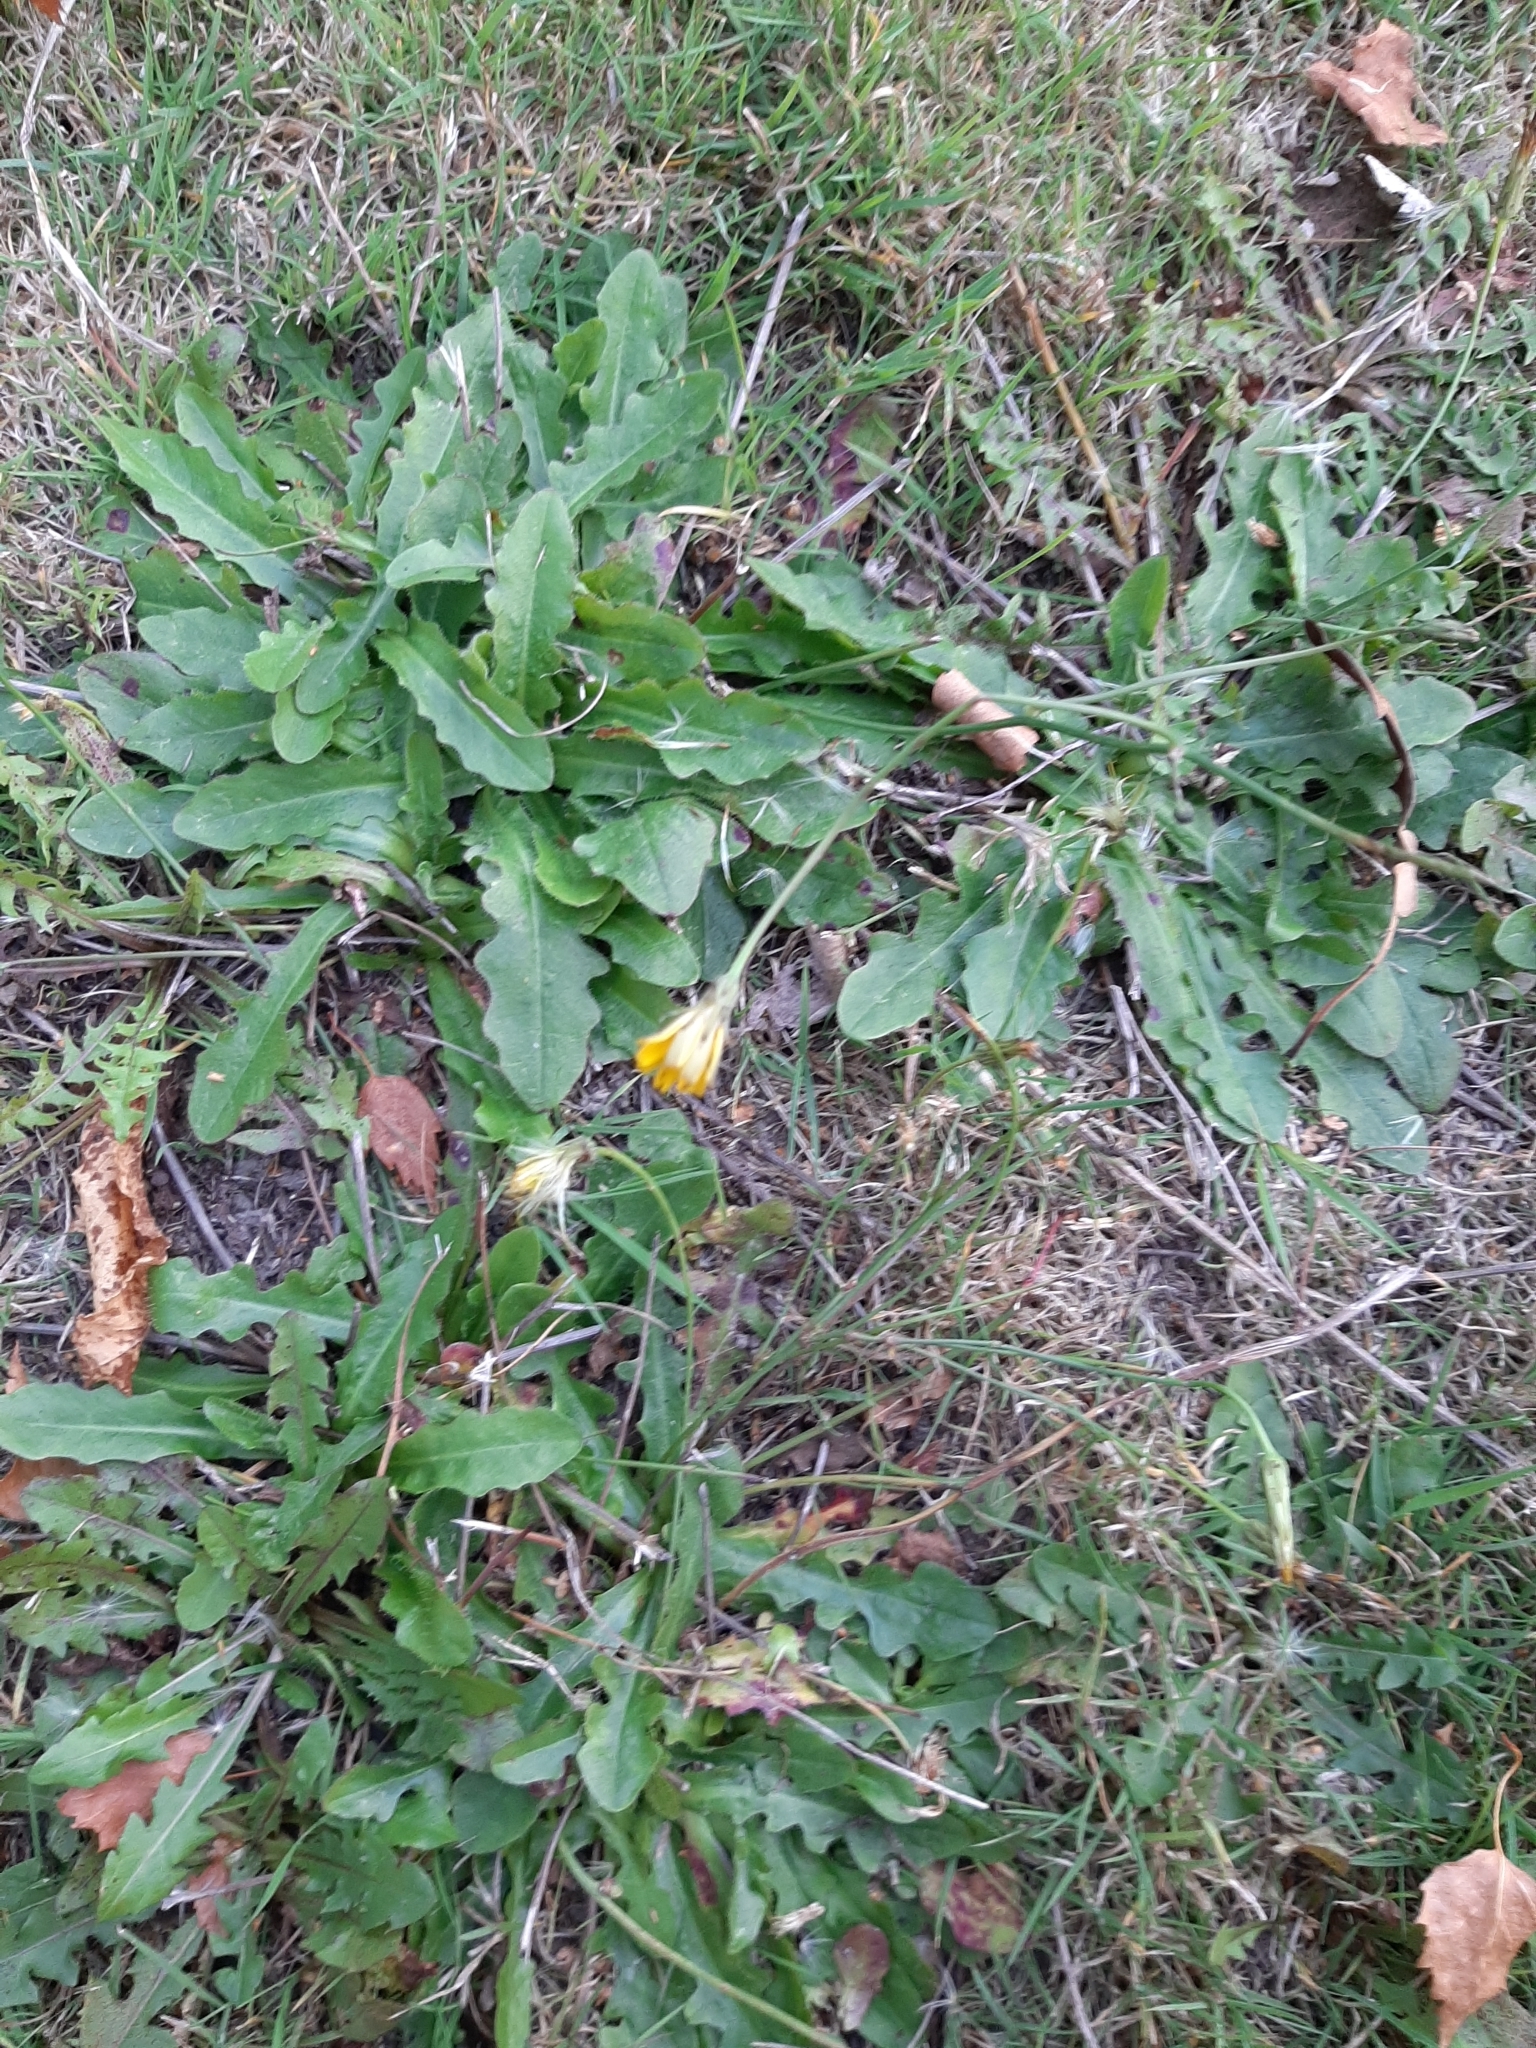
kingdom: Plantae
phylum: Tracheophyta
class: Magnoliopsida
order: Asterales
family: Asteraceae
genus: Hypochaeris
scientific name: Hypochaeris radicata
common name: Flatweed
